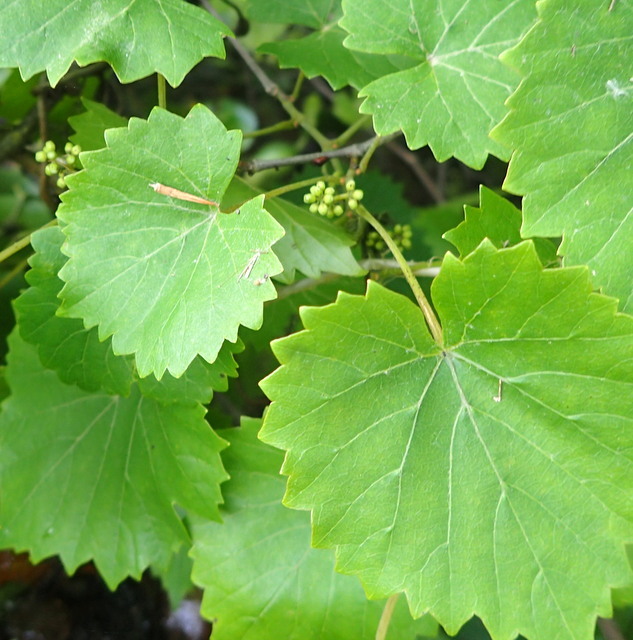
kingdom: Plantae
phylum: Tracheophyta
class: Magnoliopsida
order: Vitales
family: Vitaceae
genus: Vitis
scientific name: Vitis rotundifolia
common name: Muscadine grape
